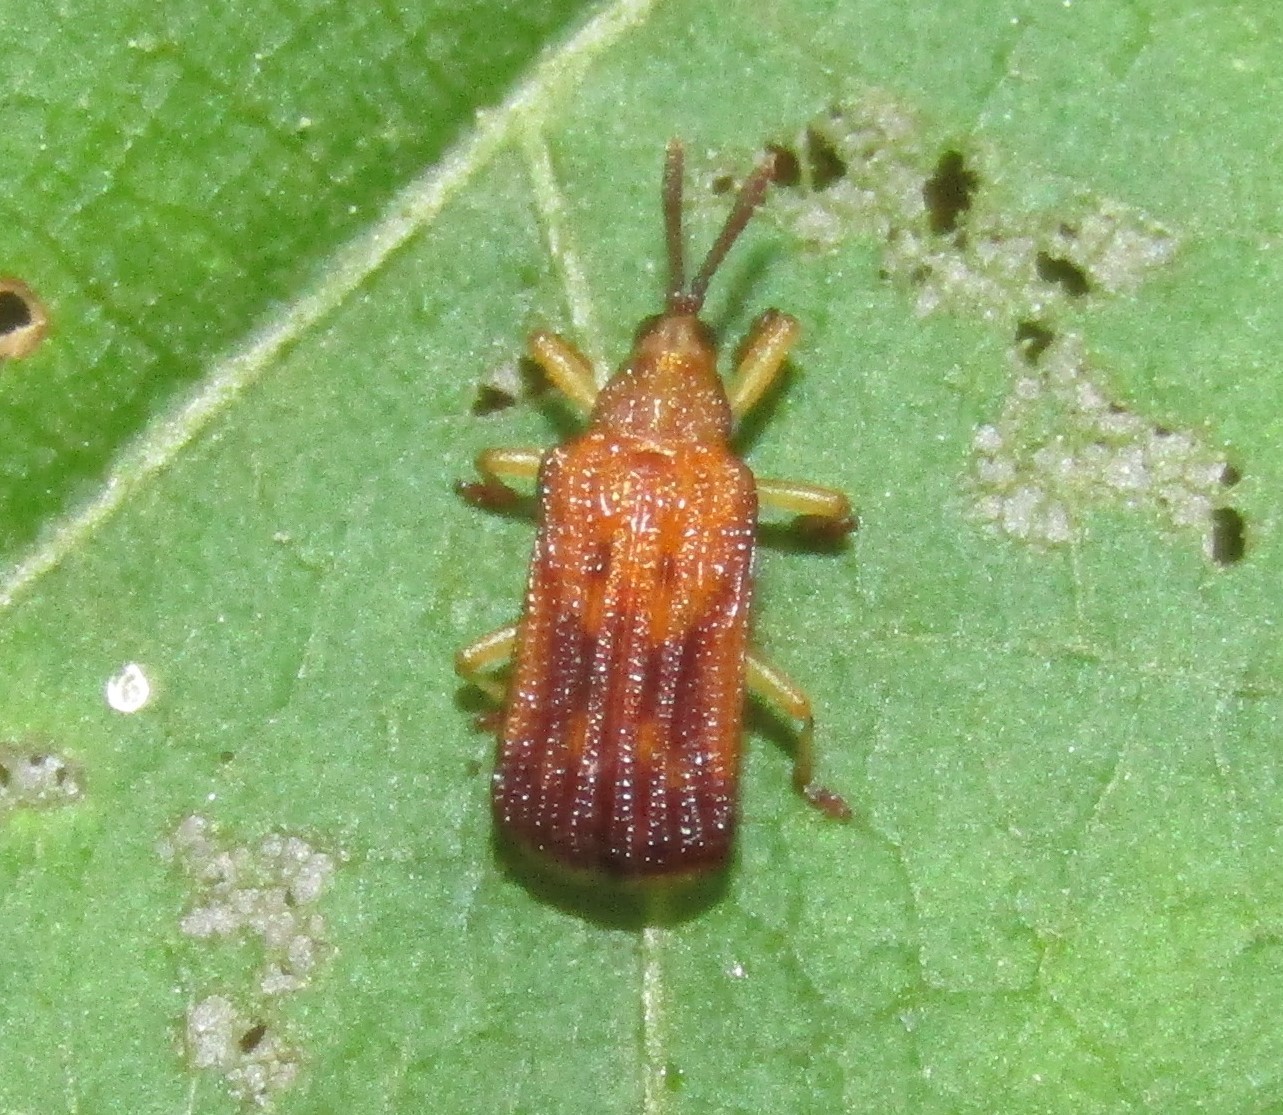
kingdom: Animalia
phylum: Arthropoda
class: Insecta
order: Coleoptera
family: Chrysomelidae
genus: Baliosus
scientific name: Baliosus nervosus
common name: Basswood leaf miner
